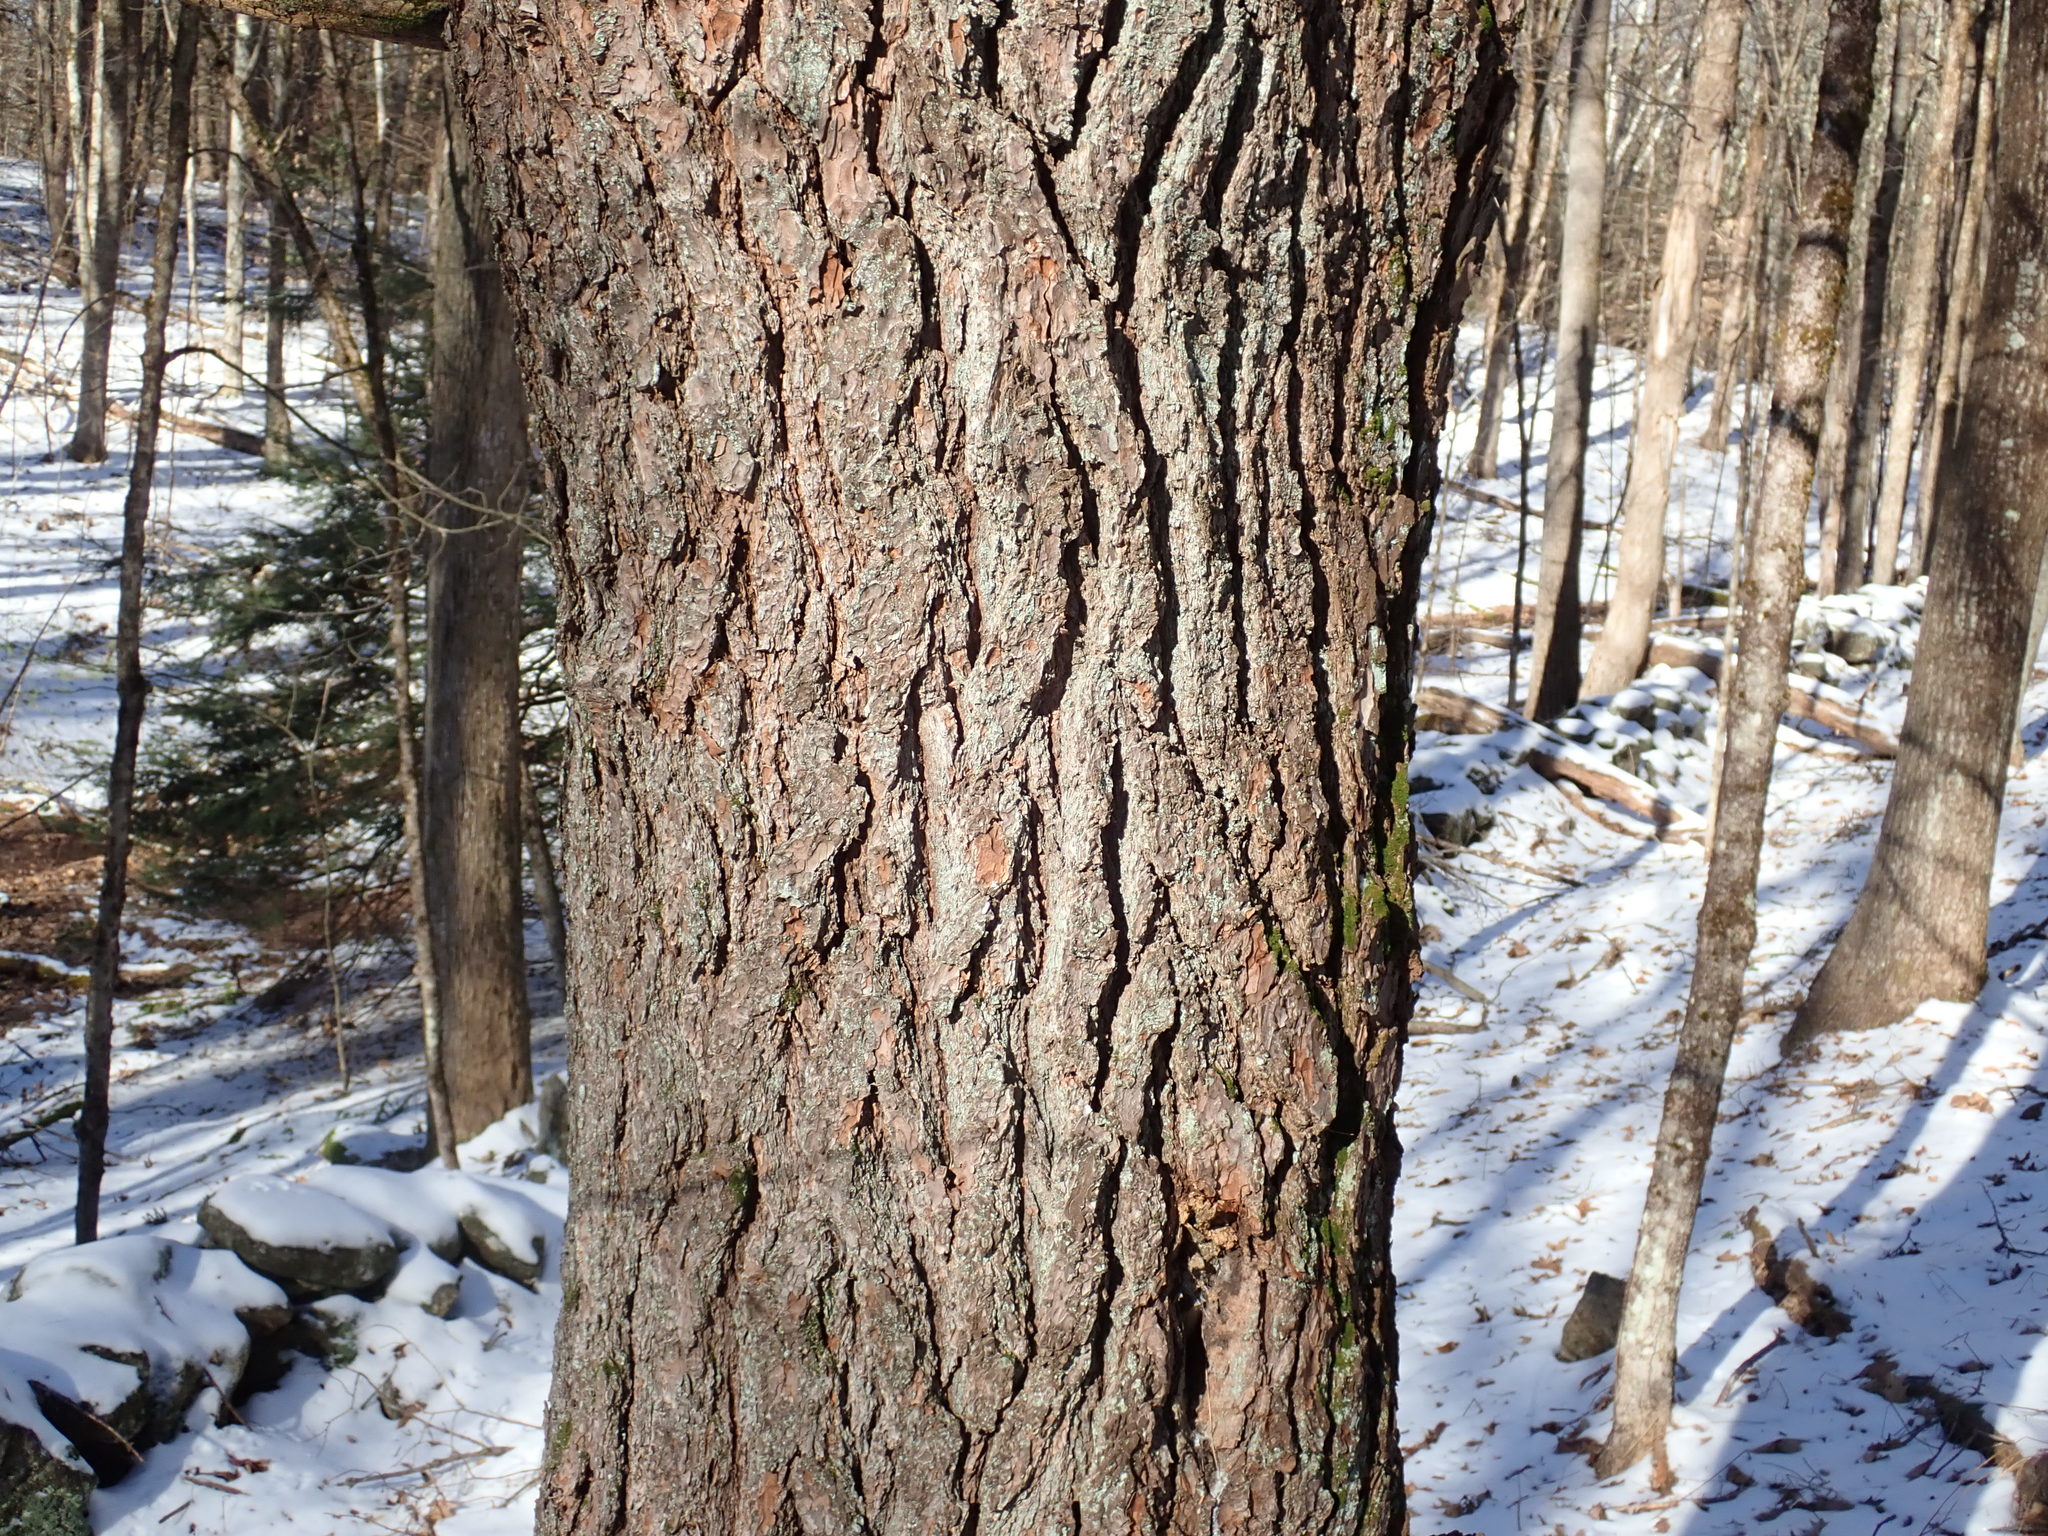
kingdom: Plantae
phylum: Tracheophyta
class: Pinopsida
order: Pinales
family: Pinaceae
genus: Pinus
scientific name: Pinus strobus
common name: Weymouth pine
